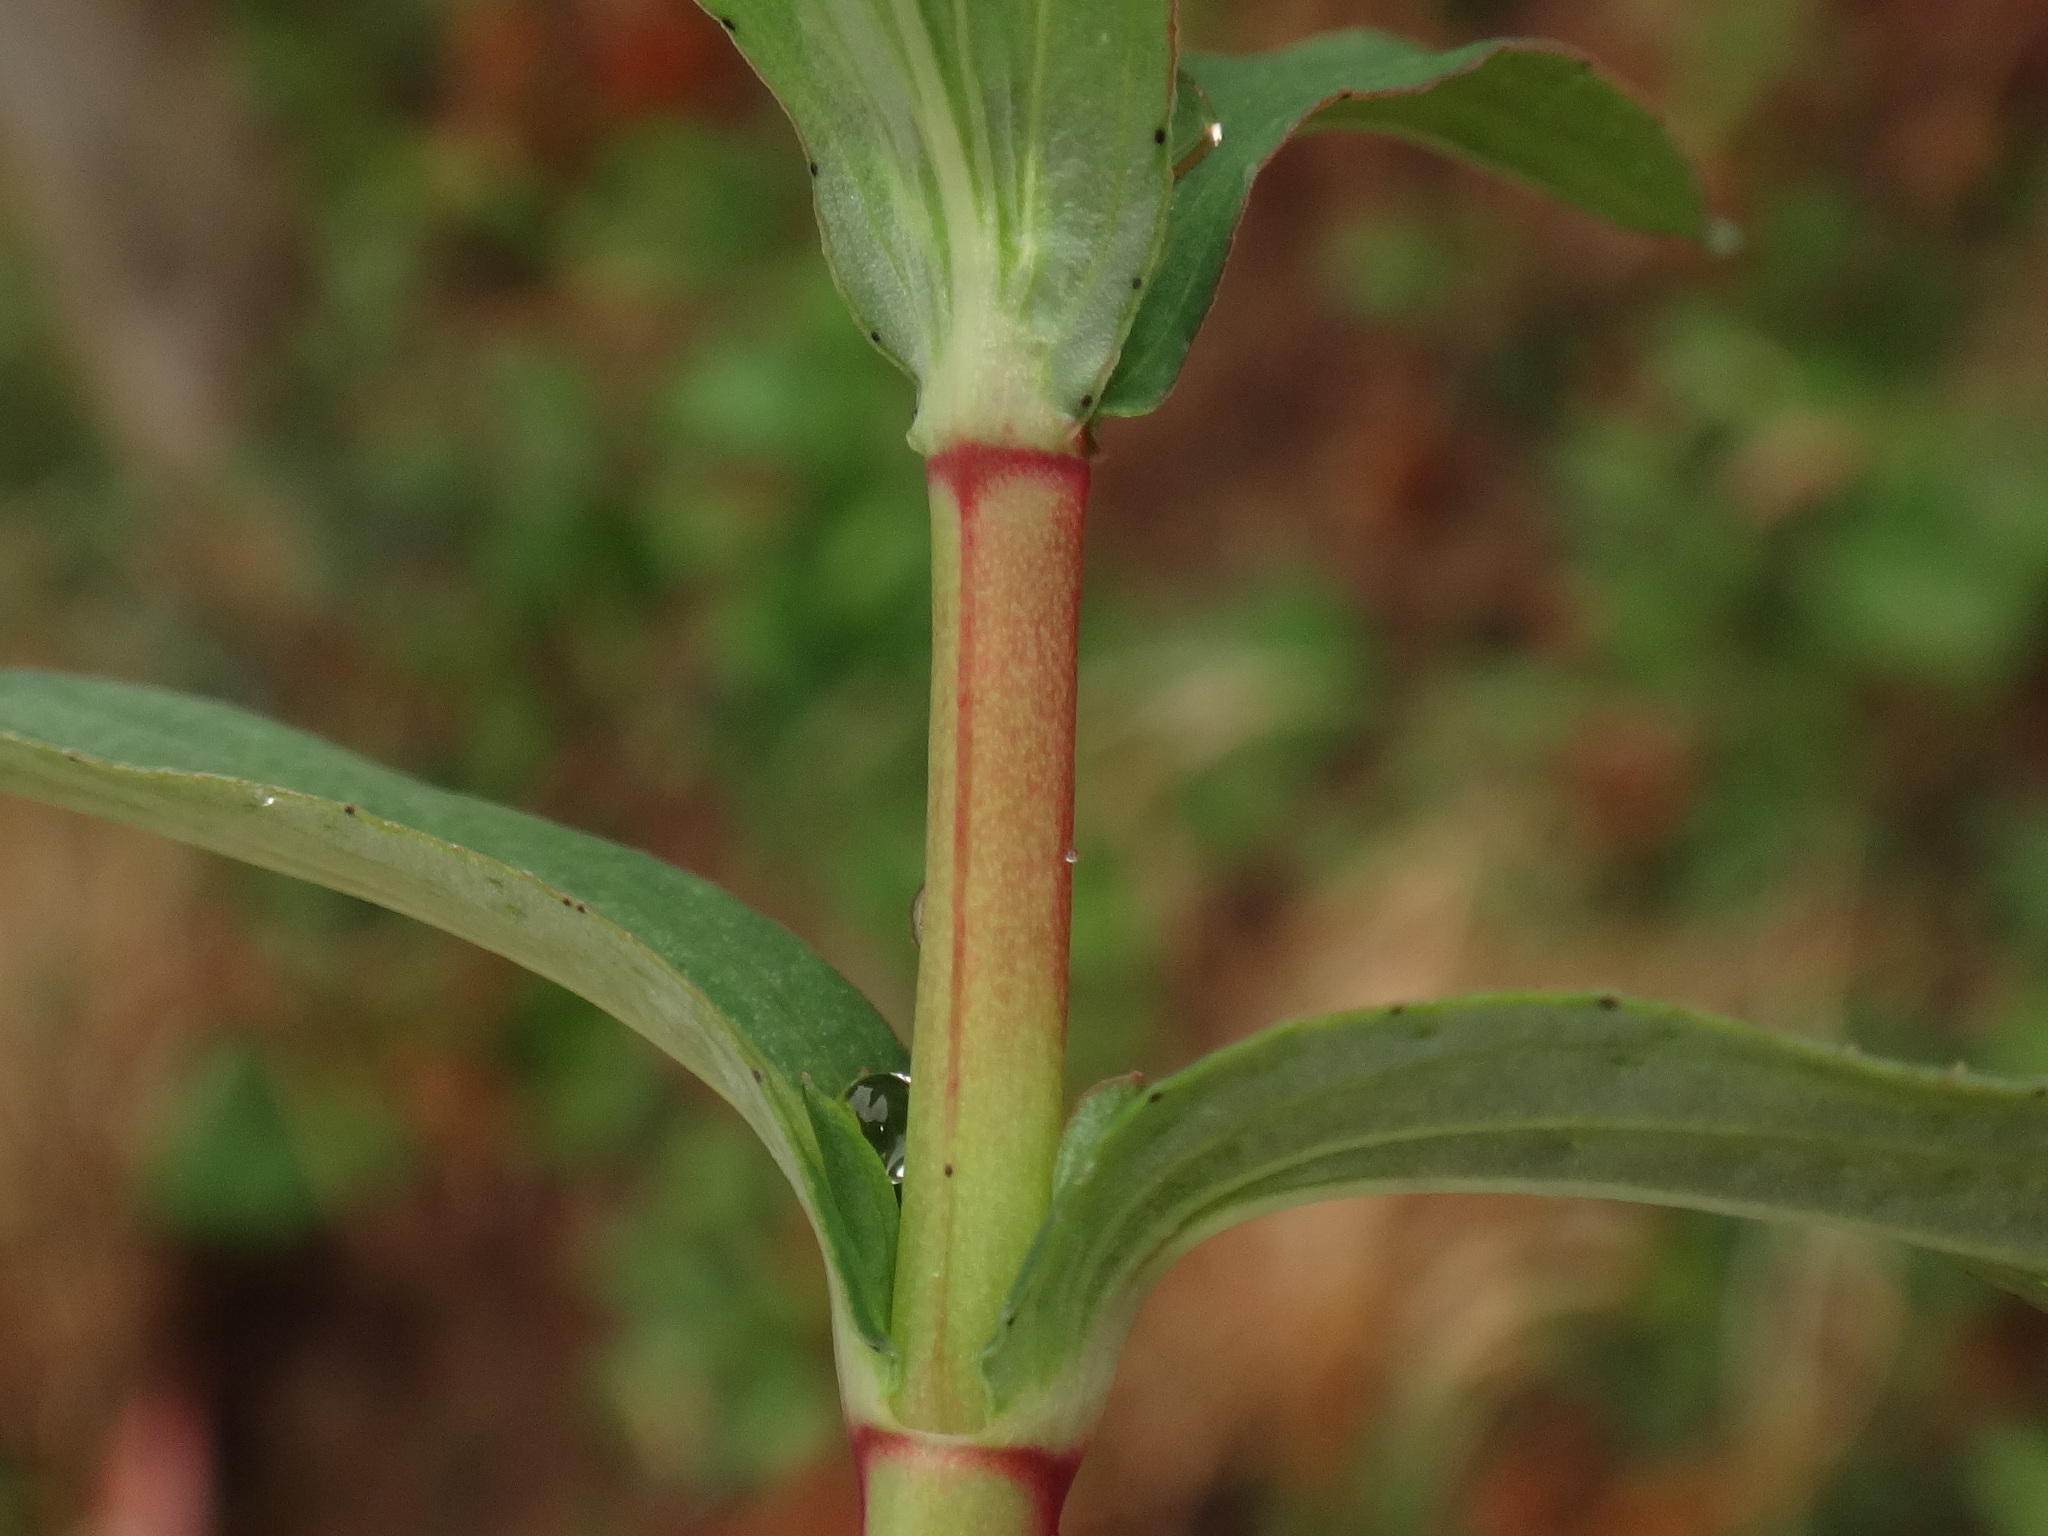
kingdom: Plantae
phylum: Tracheophyta
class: Magnoliopsida
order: Malpighiales
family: Hypericaceae
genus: Hypericum
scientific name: Hypericum perforatum
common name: Common st. johnswort
